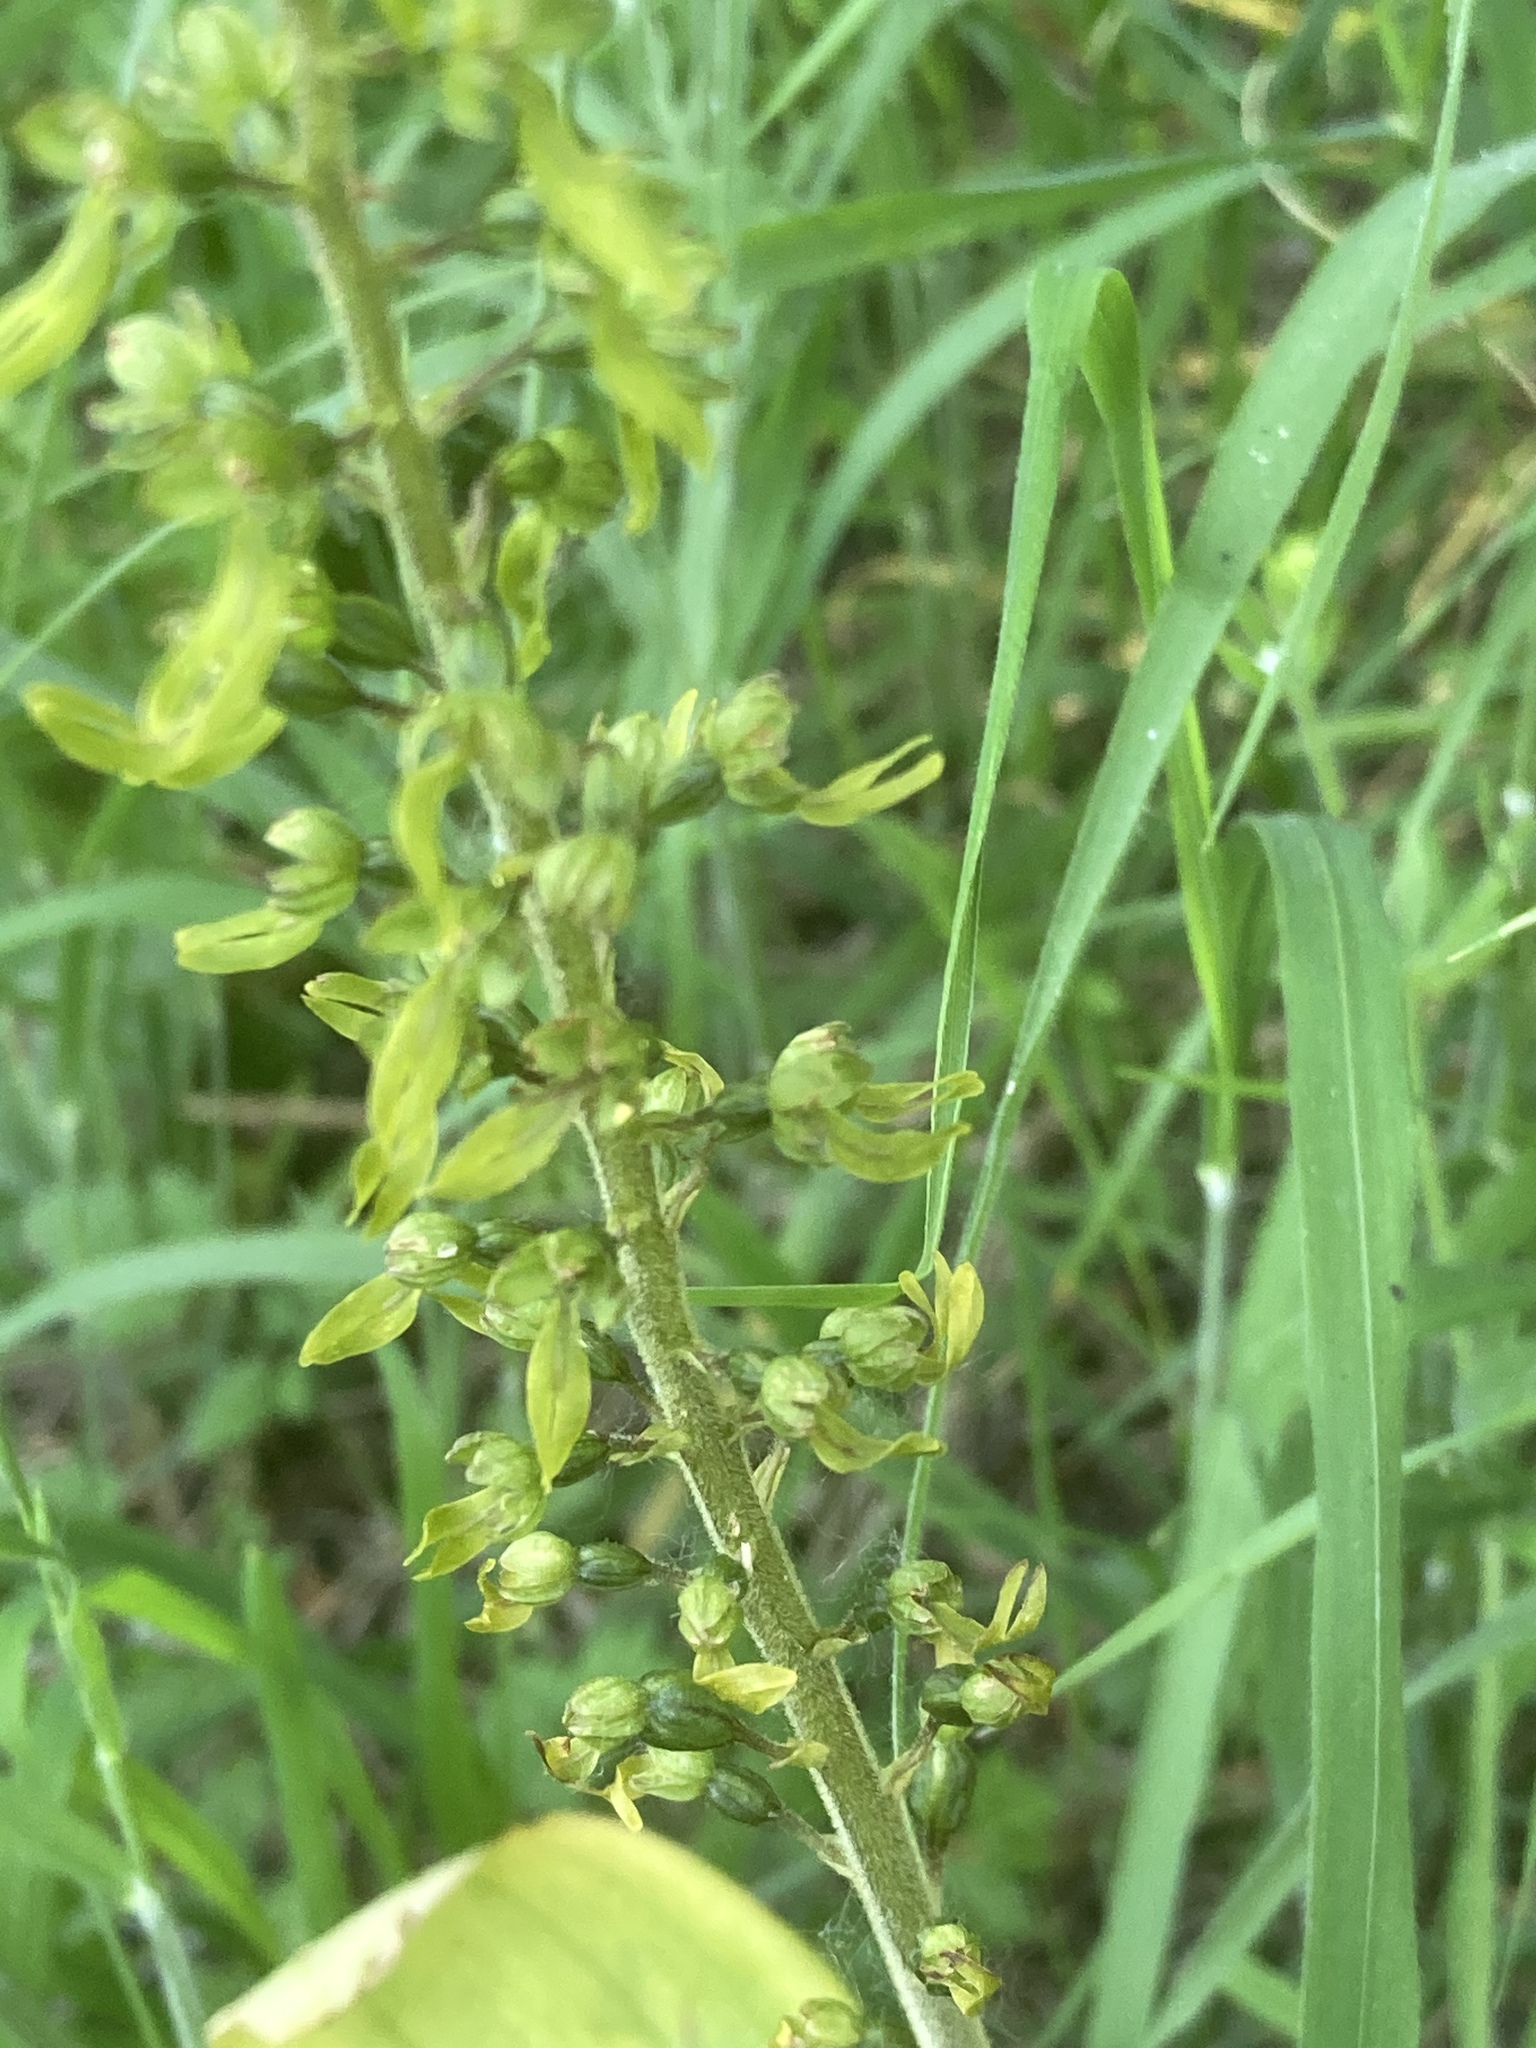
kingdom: Plantae
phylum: Tracheophyta
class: Liliopsida
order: Asparagales
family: Orchidaceae
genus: Neottia
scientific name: Neottia ovata
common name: Common twayblade
